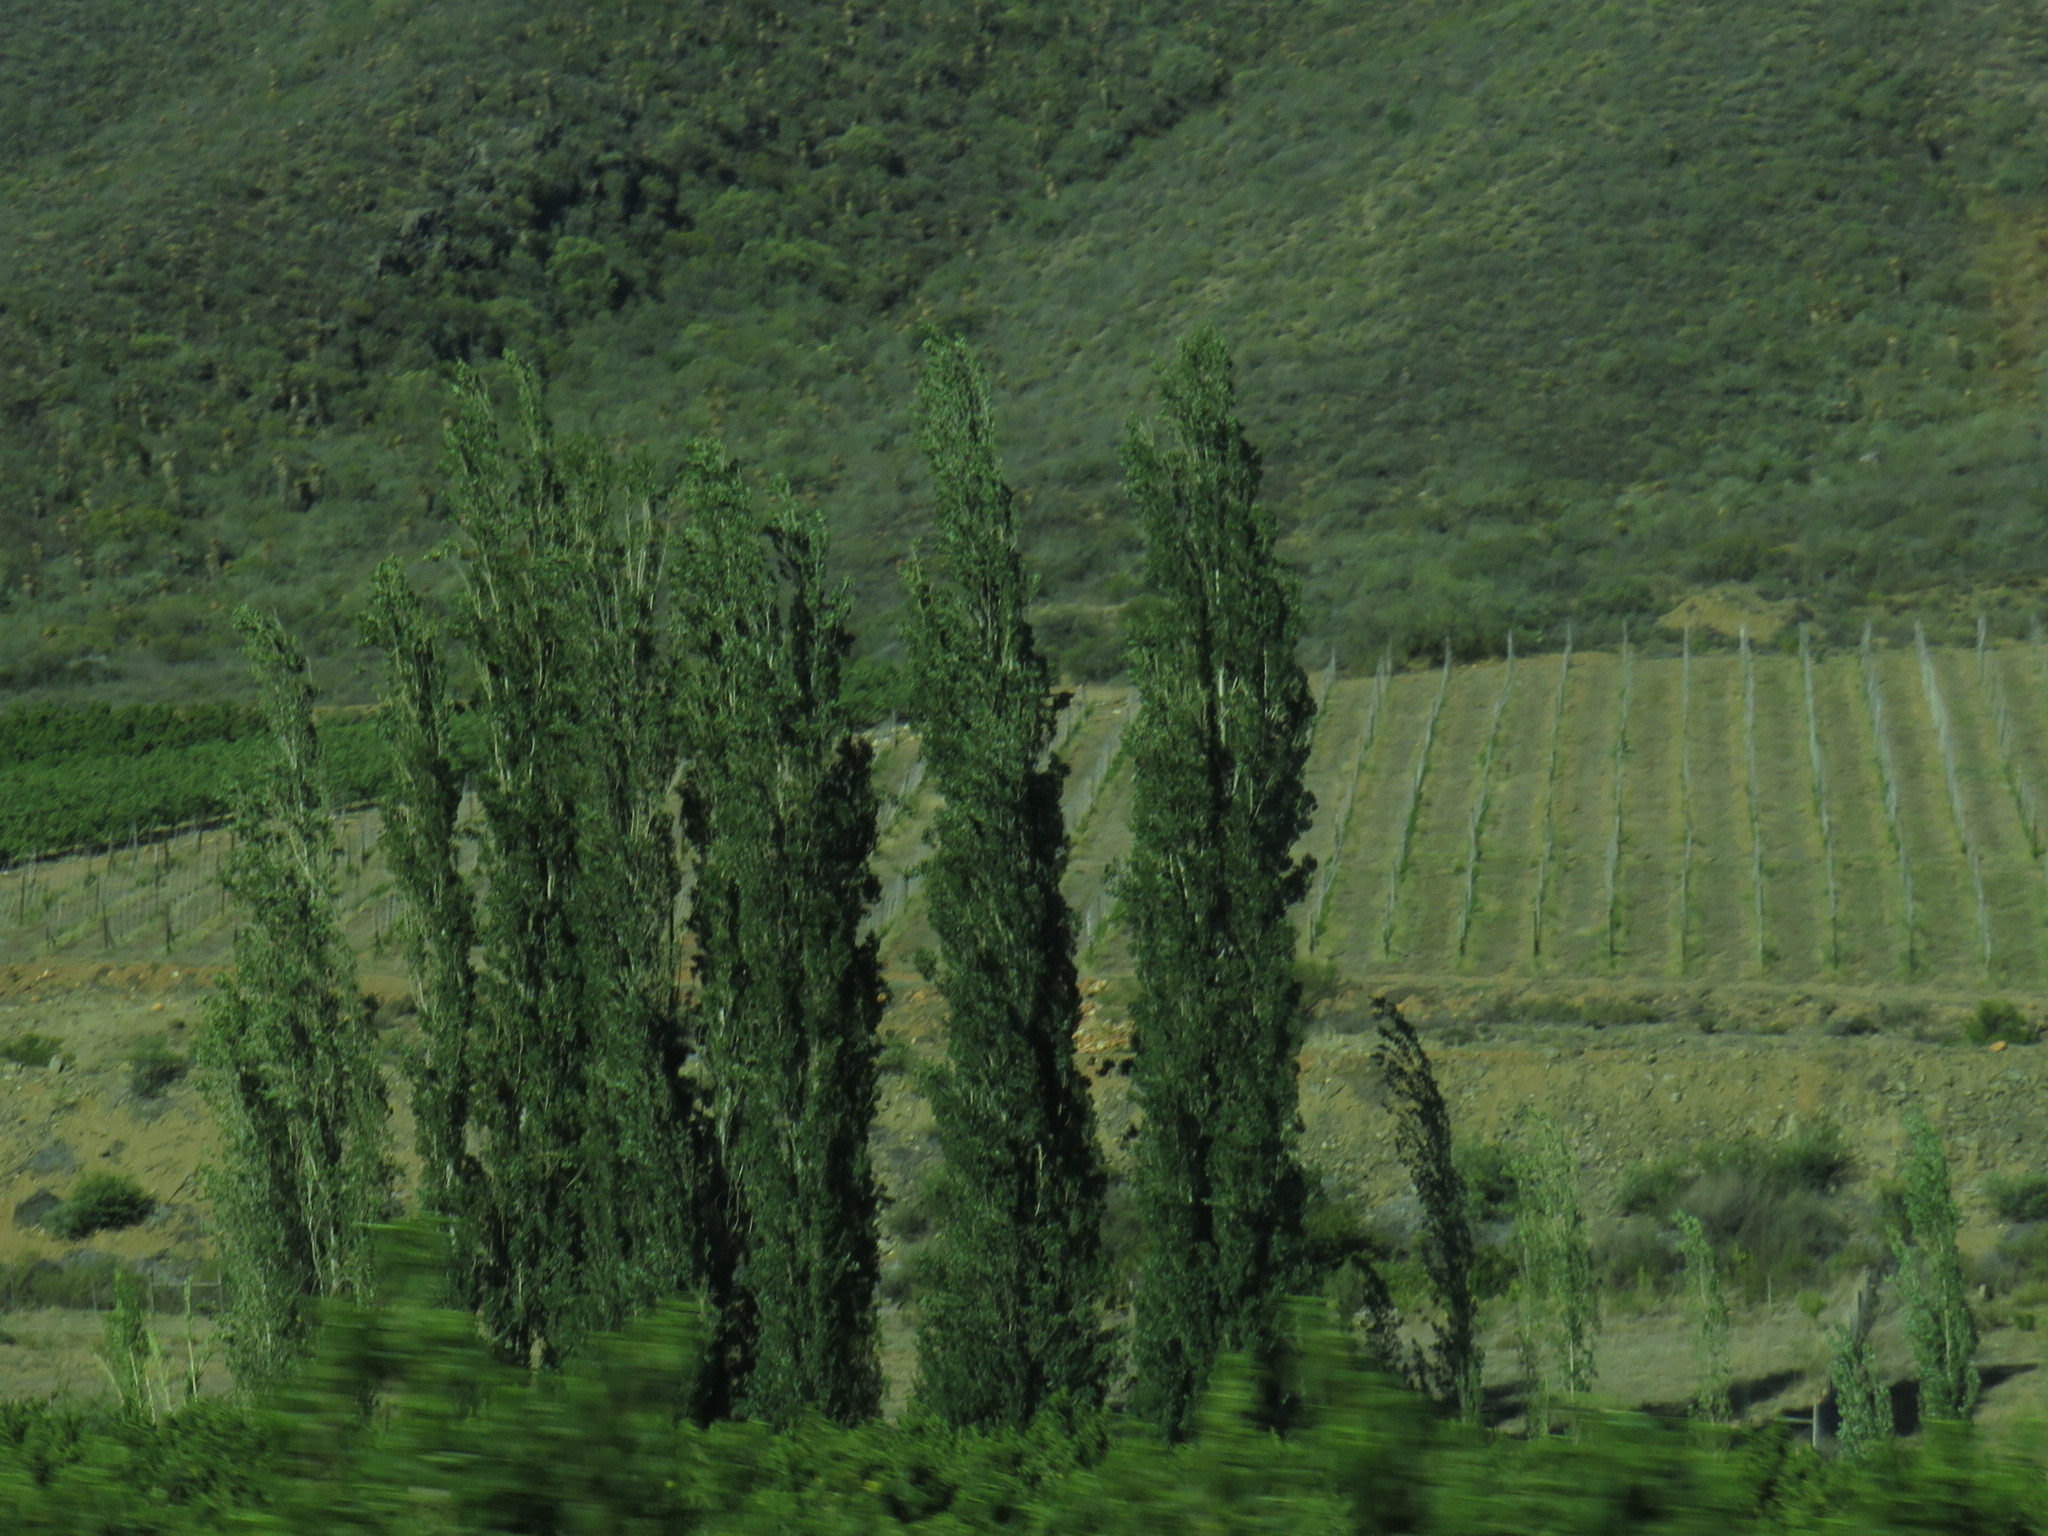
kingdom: Plantae
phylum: Tracheophyta
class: Magnoliopsida
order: Malpighiales
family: Salicaceae
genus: Populus
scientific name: Populus nigra
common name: Black poplar
